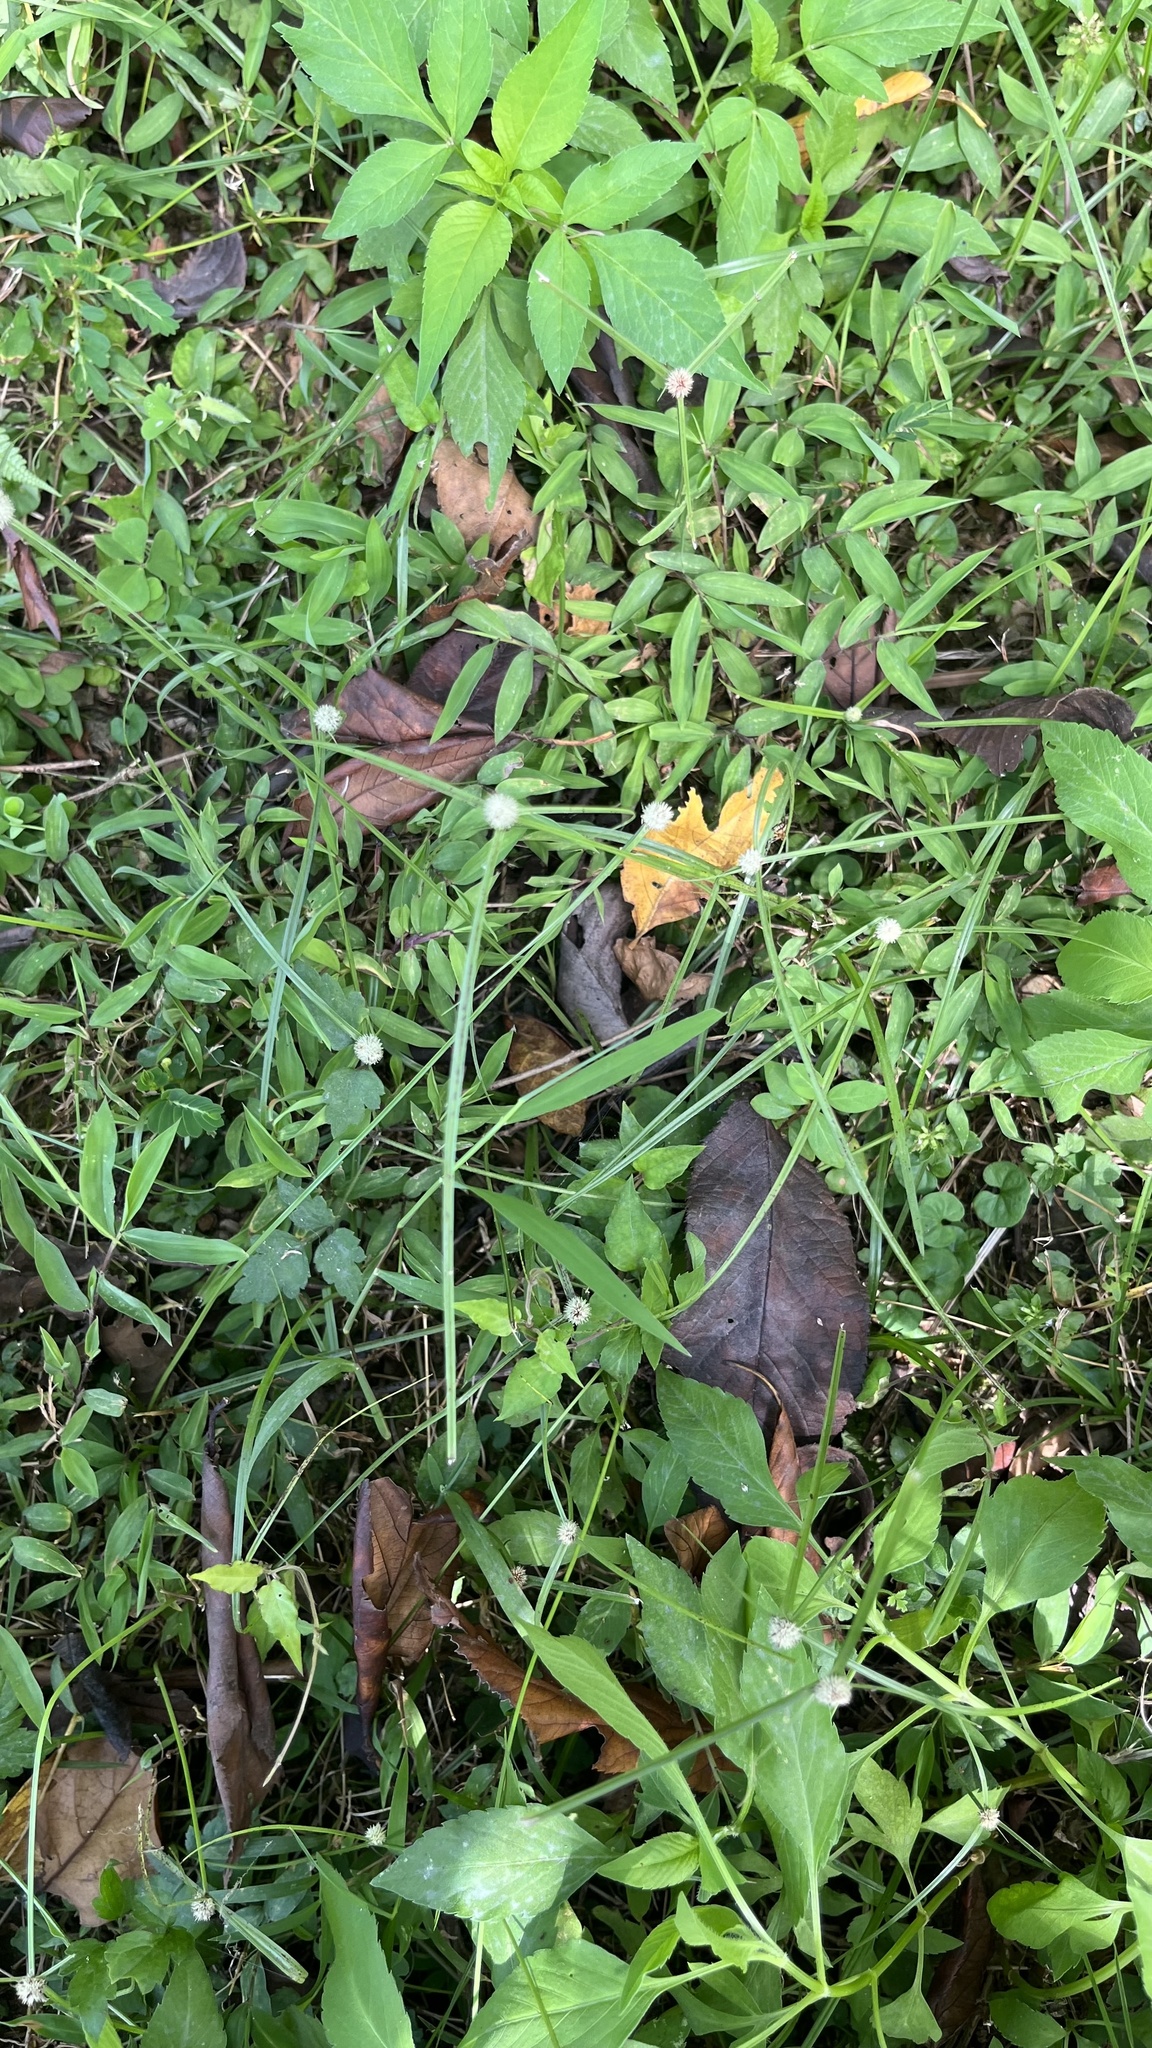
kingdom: Plantae
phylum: Tracheophyta
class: Liliopsida
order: Poales
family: Cyperaceae
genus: Cyperus
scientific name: Cyperus mindorensis
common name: Flatsedge
